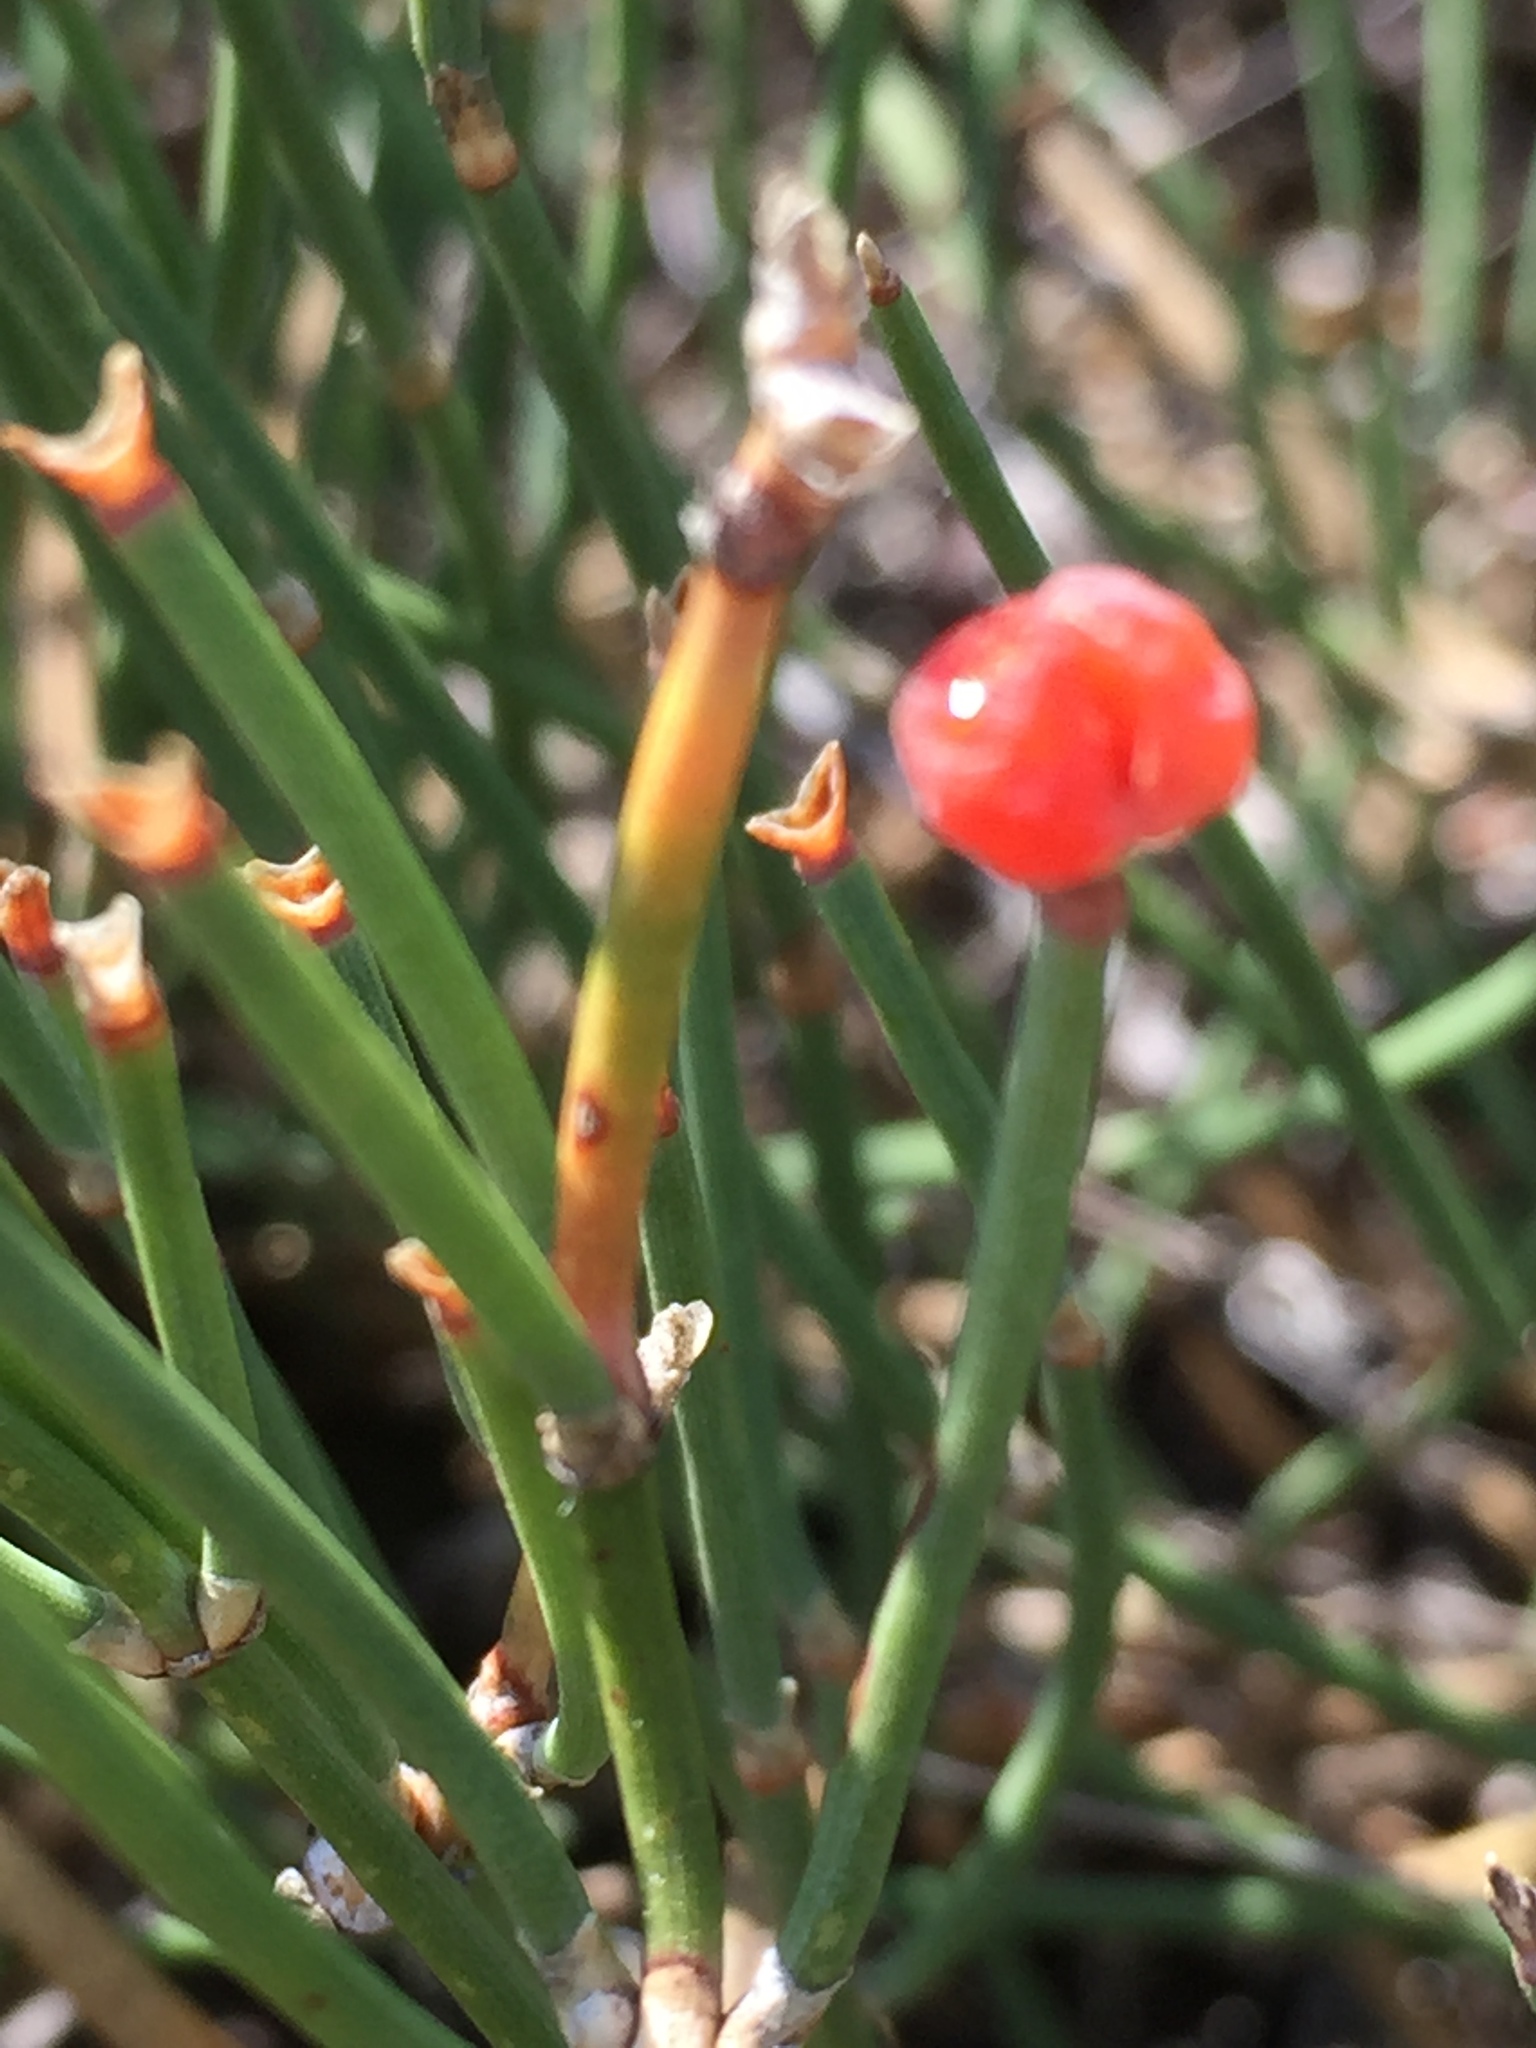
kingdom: Plantae
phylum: Tracheophyta
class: Gnetopsida
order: Ephedrales
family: Ephedraceae
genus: Ephedra
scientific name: Ephedra distachya
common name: Sea grape
